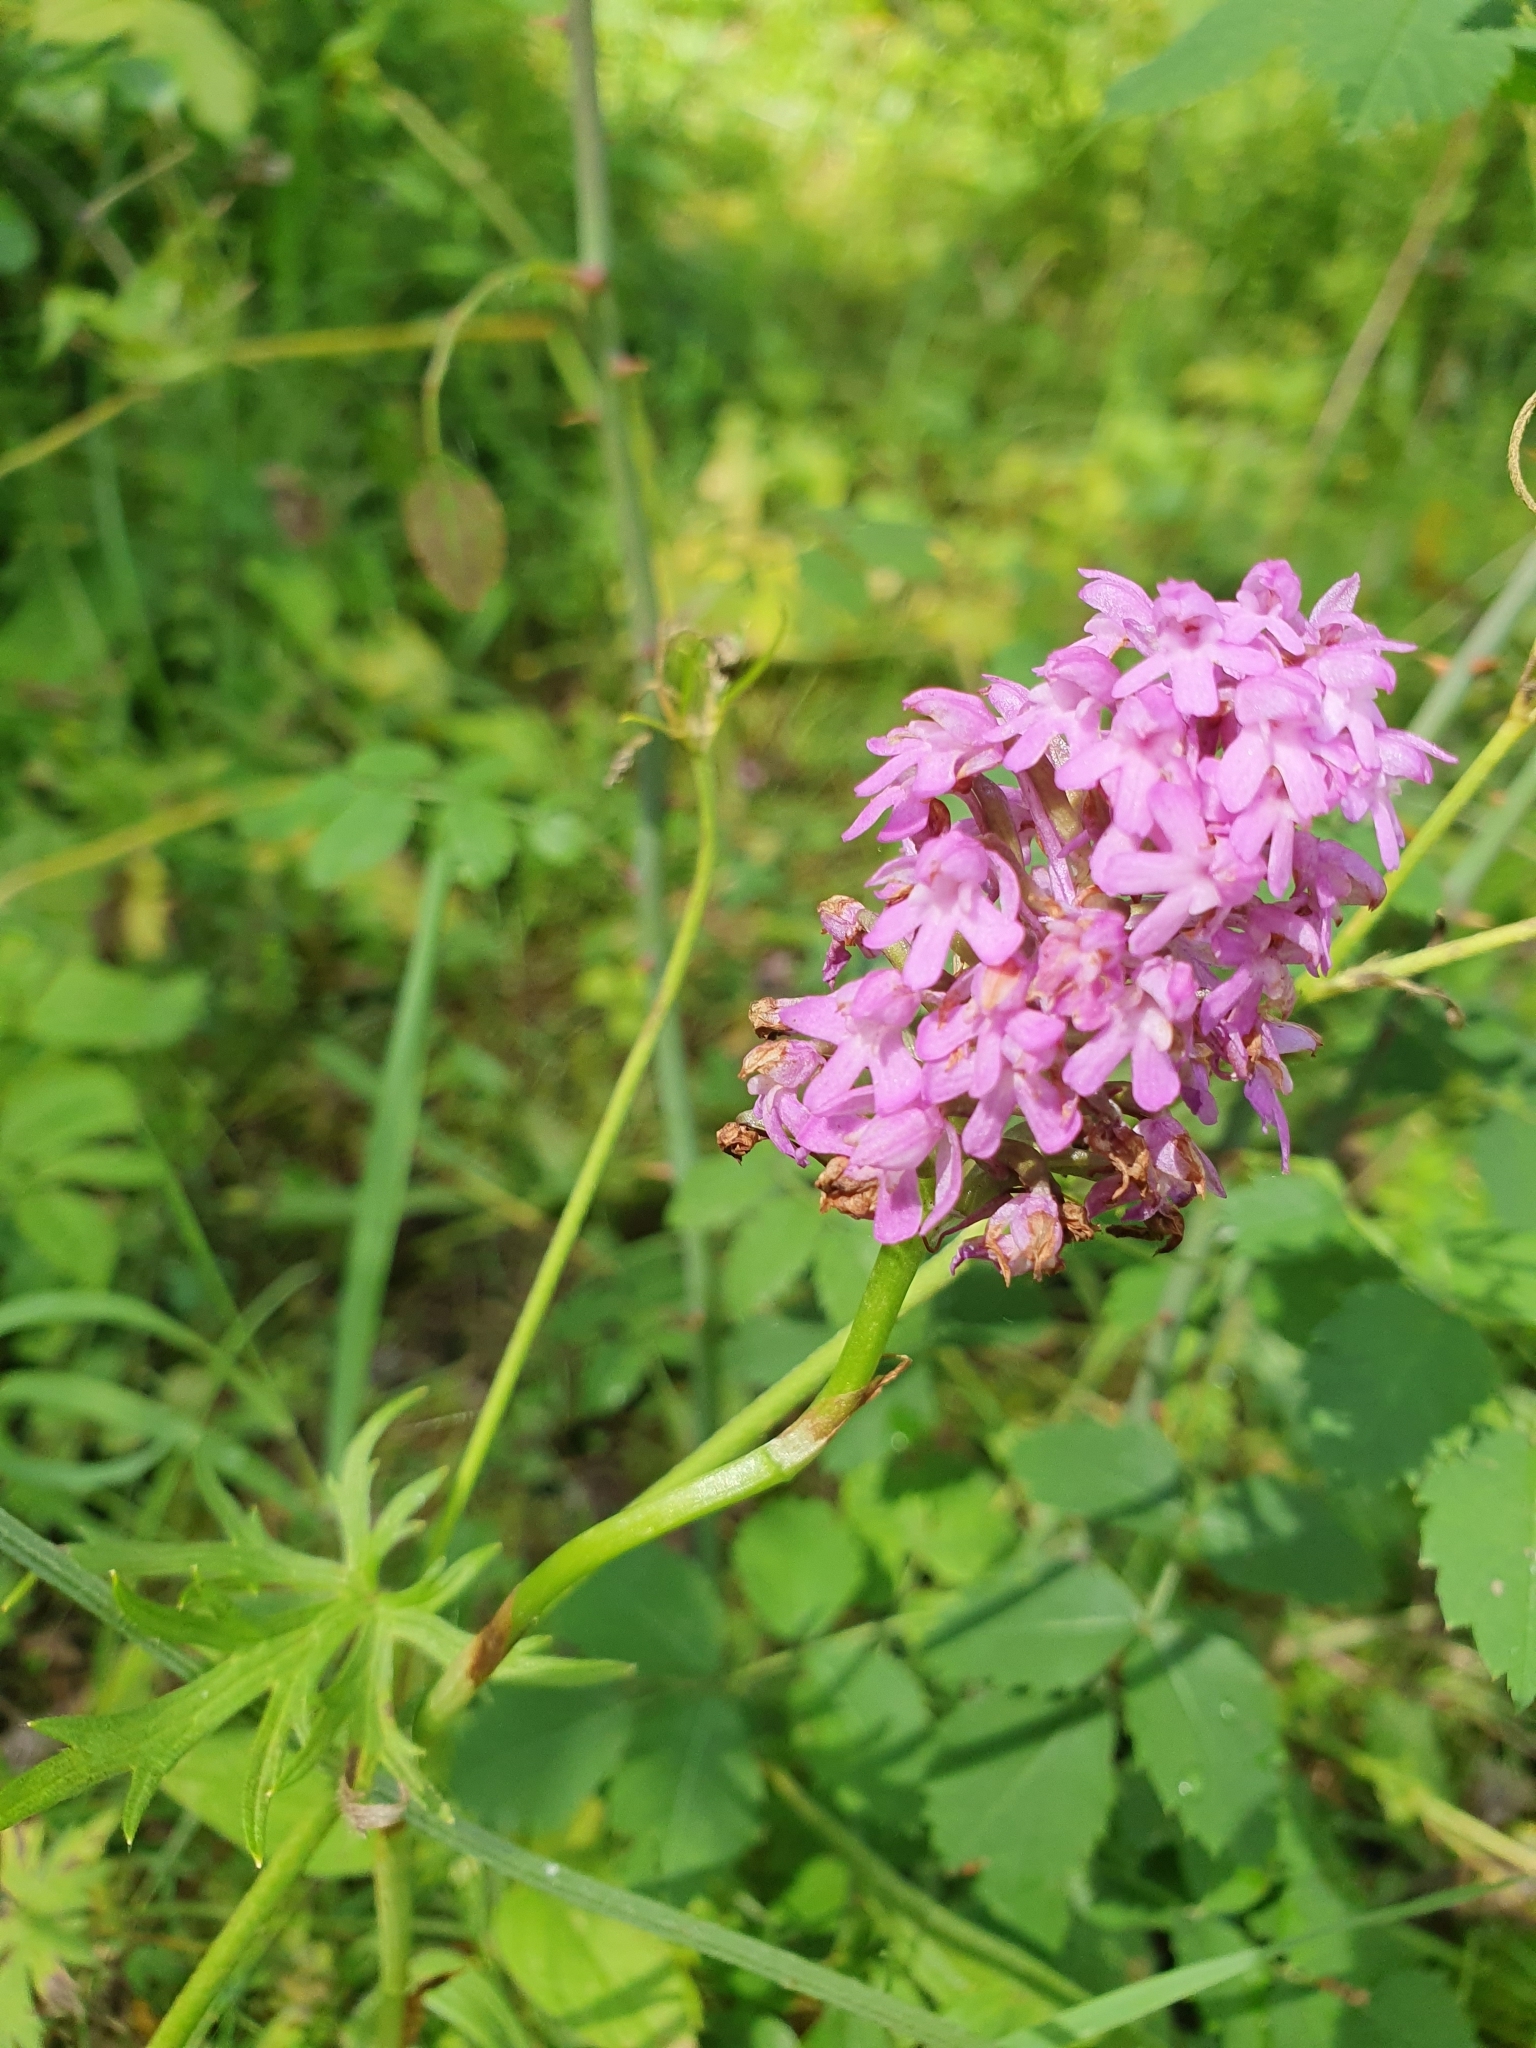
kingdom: Plantae
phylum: Tracheophyta
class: Liliopsida
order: Asparagales
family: Orchidaceae
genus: Anacamptis
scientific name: Anacamptis pyramidalis
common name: Pyramidal orchid
